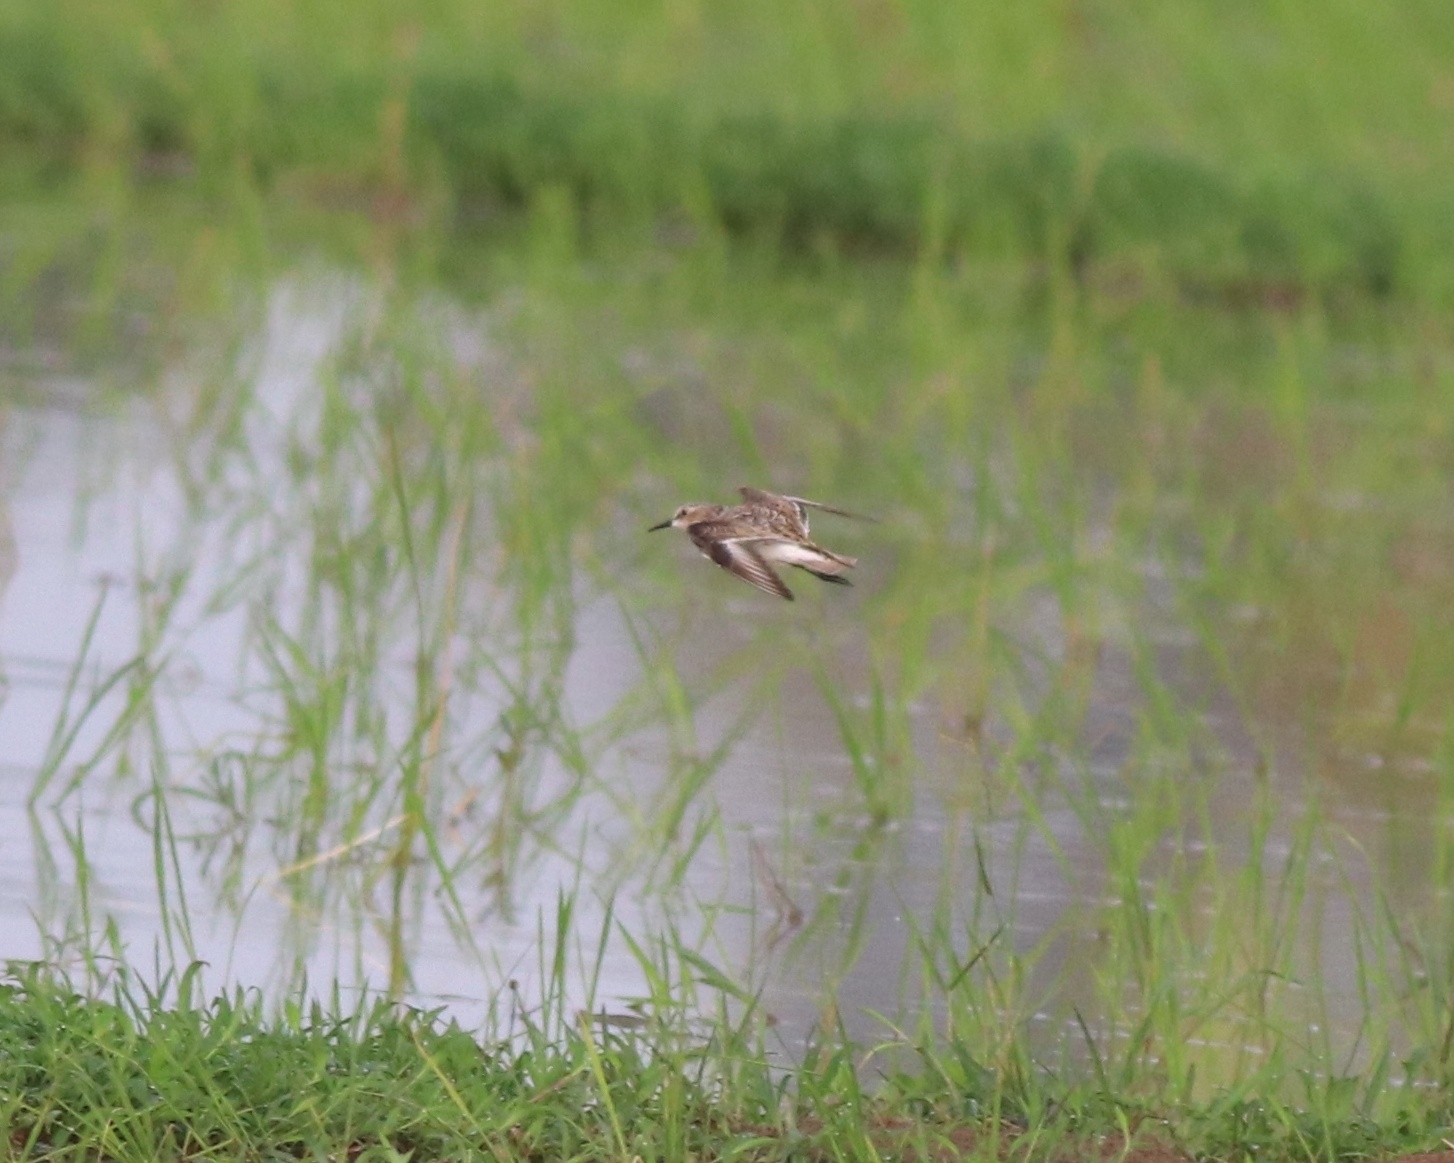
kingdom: Animalia
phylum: Chordata
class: Aves
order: Charadriiformes
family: Scolopacidae
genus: Calidris
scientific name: Calidris minuta
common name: Little stint
